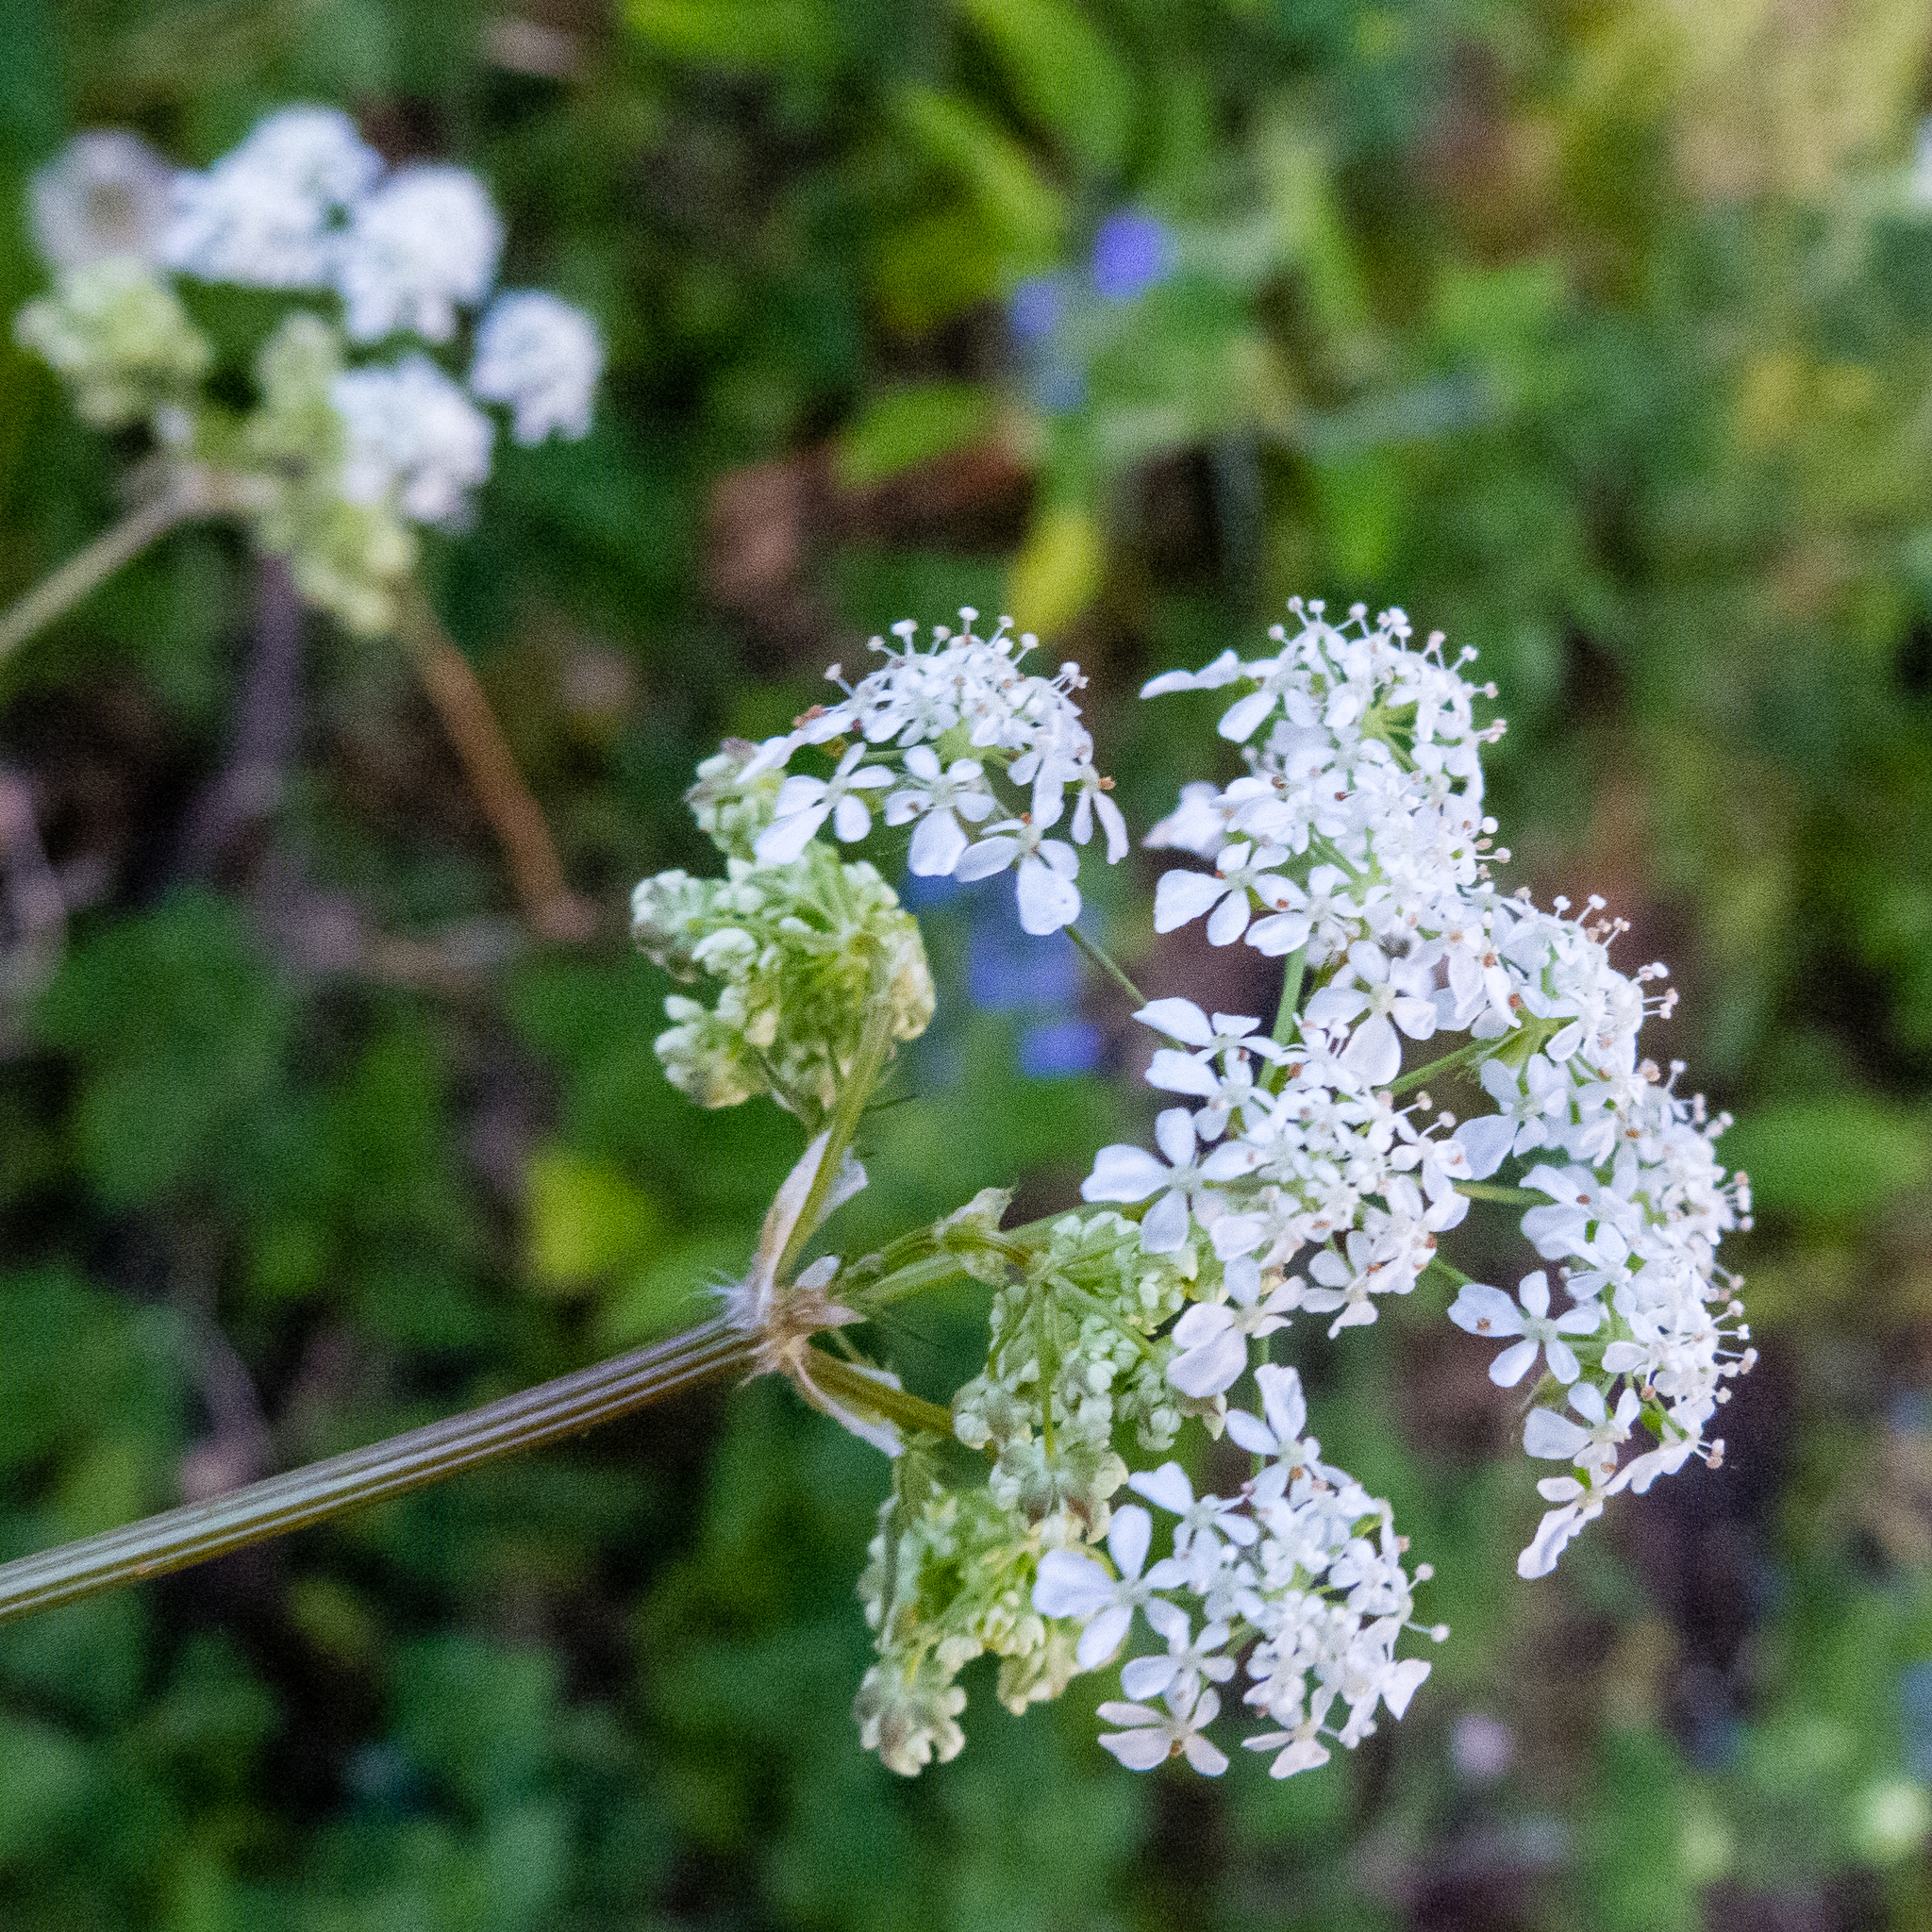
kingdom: Plantae
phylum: Tracheophyta
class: Magnoliopsida
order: Apiales
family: Apiaceae
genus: Anthriscus
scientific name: Anthriscus sylvestris
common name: Cow parsley
